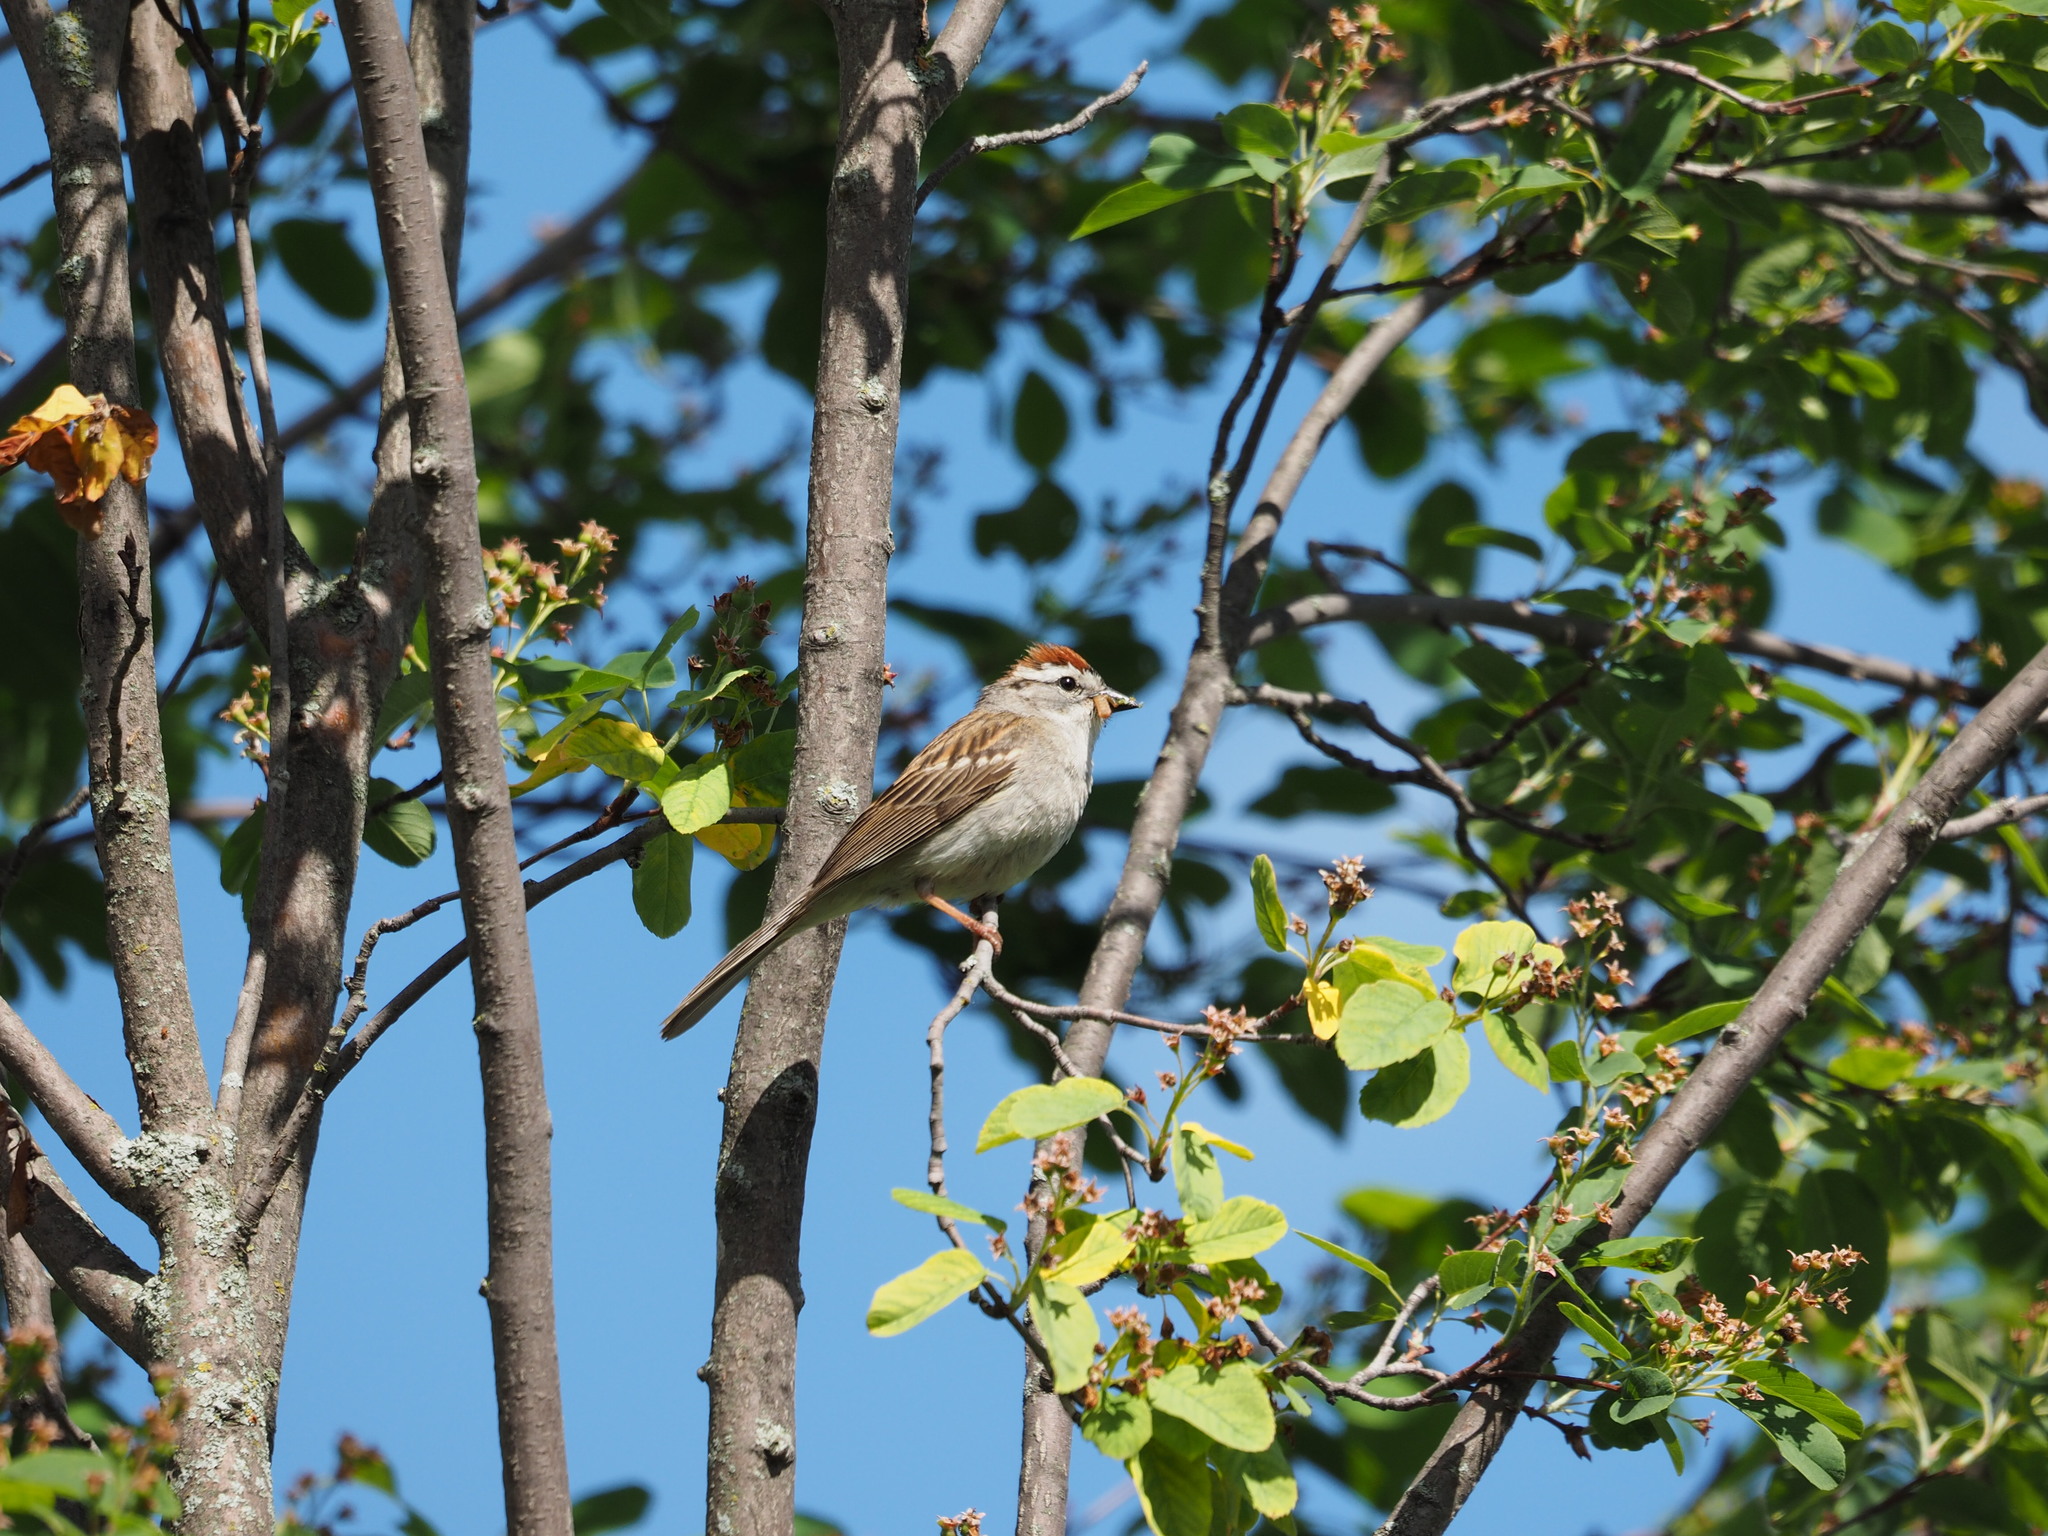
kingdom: Animalia
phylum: Chordata
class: Aves
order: Passeriformes
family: Passerellidae
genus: Spizella
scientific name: Spizella passerina
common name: Chipping sparrow
